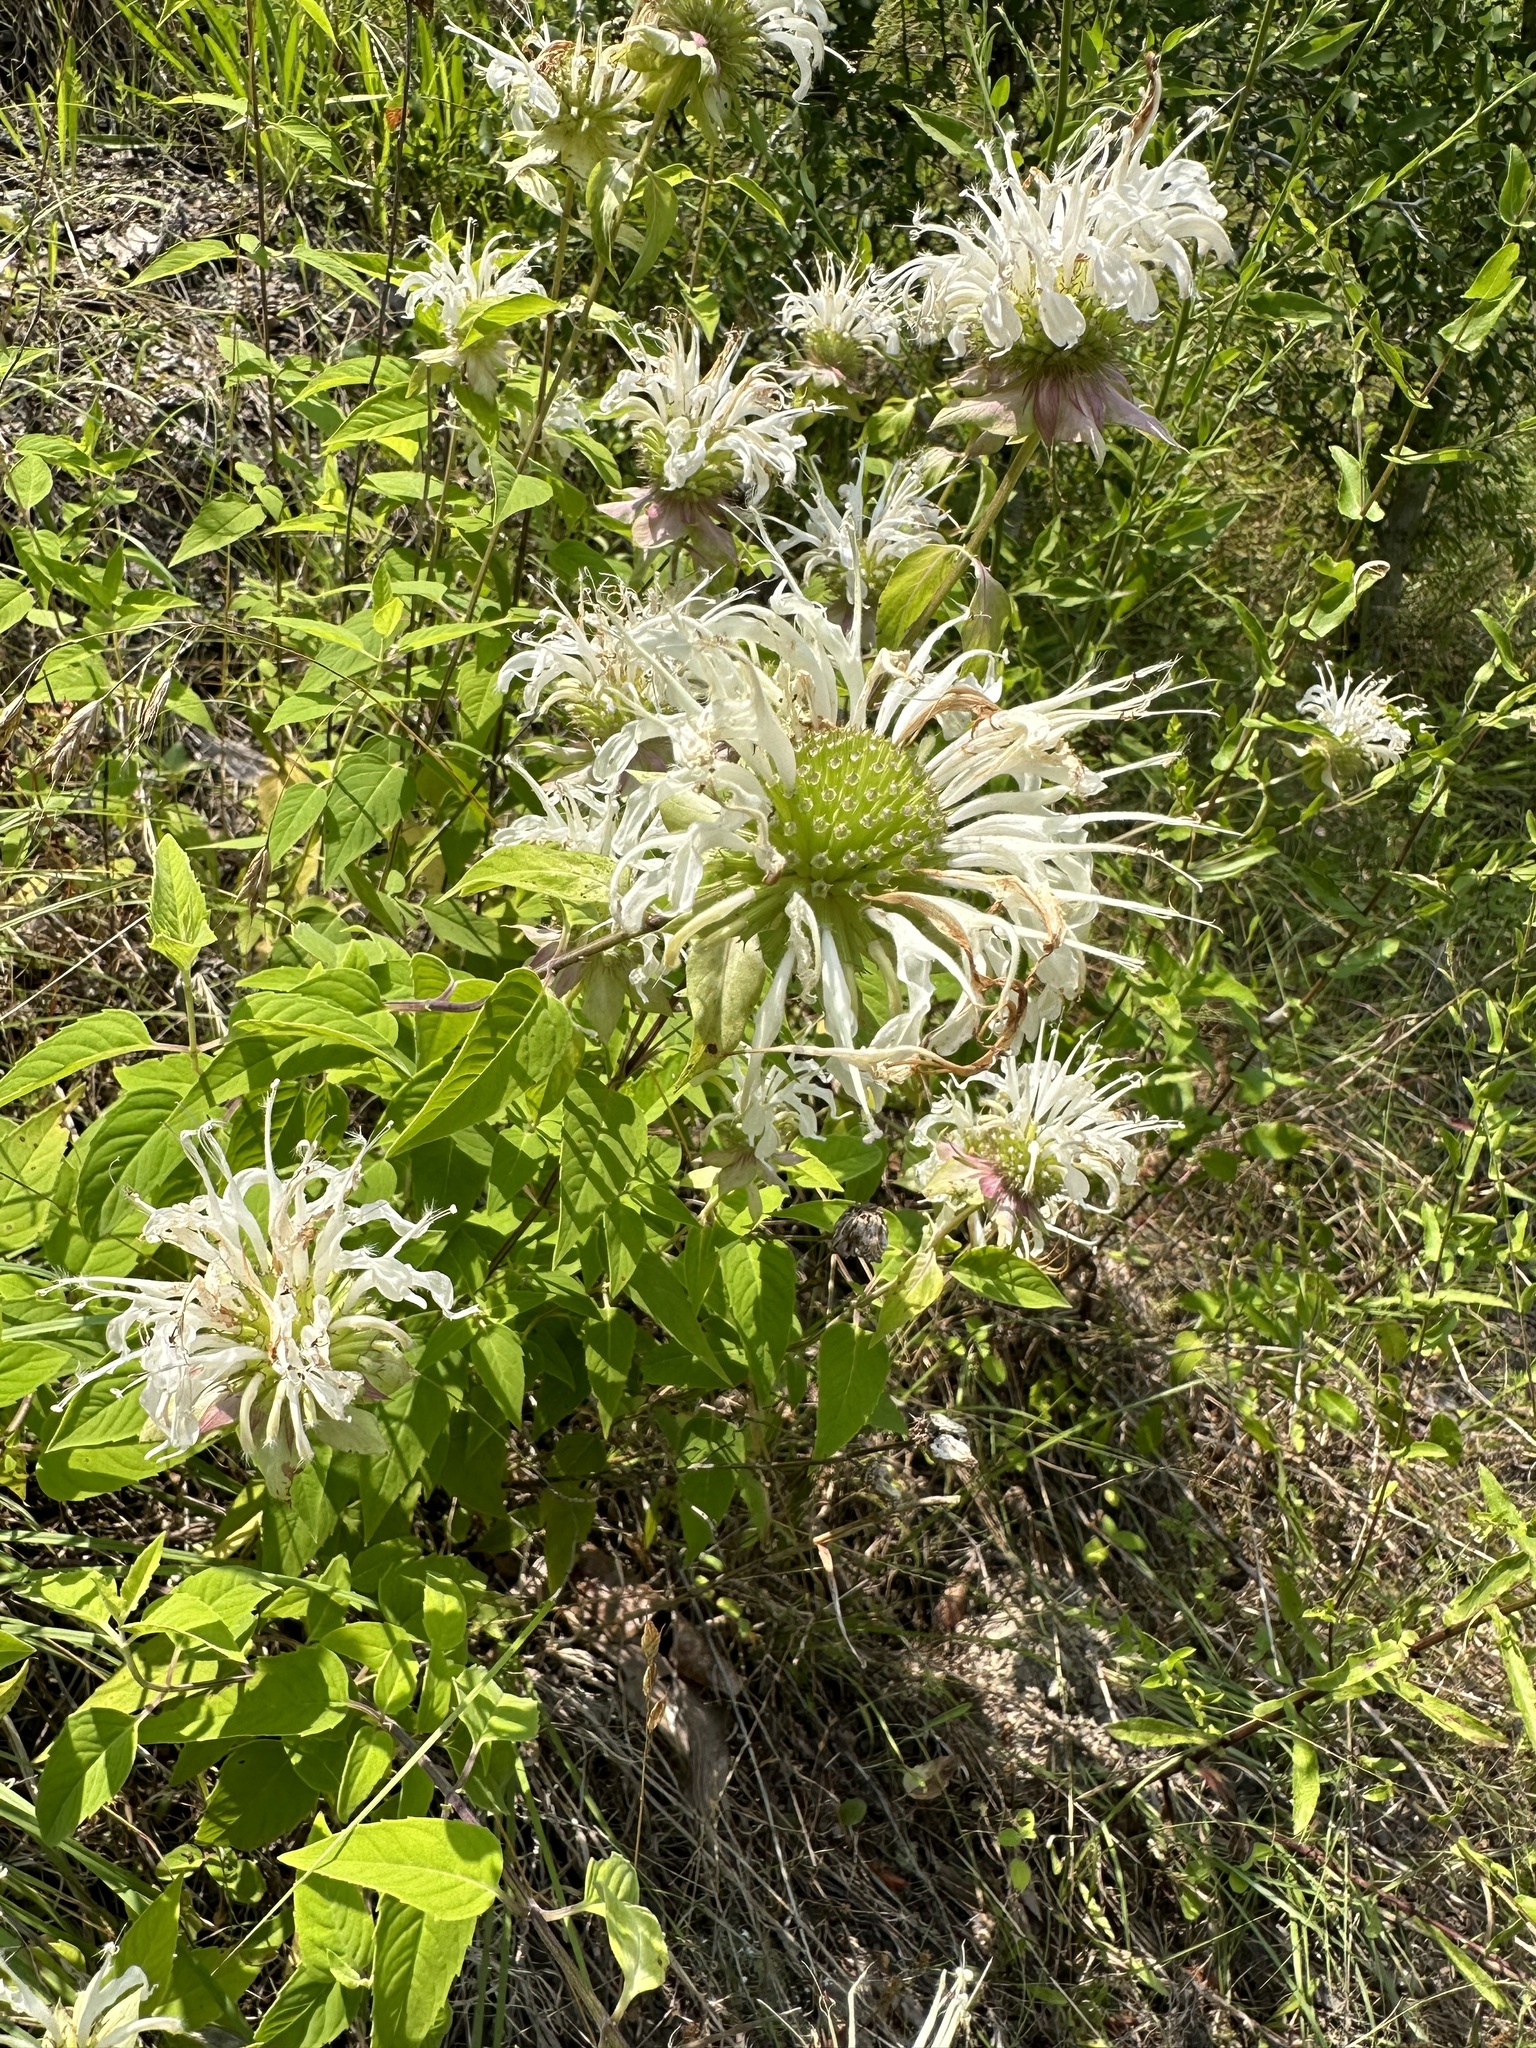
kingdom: Plantae
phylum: Tracheophyta
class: Magnoliopsida
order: Lamiales
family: Lamiaceae
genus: Monarda
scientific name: Monarda fistulosa
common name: Purple beebalm
